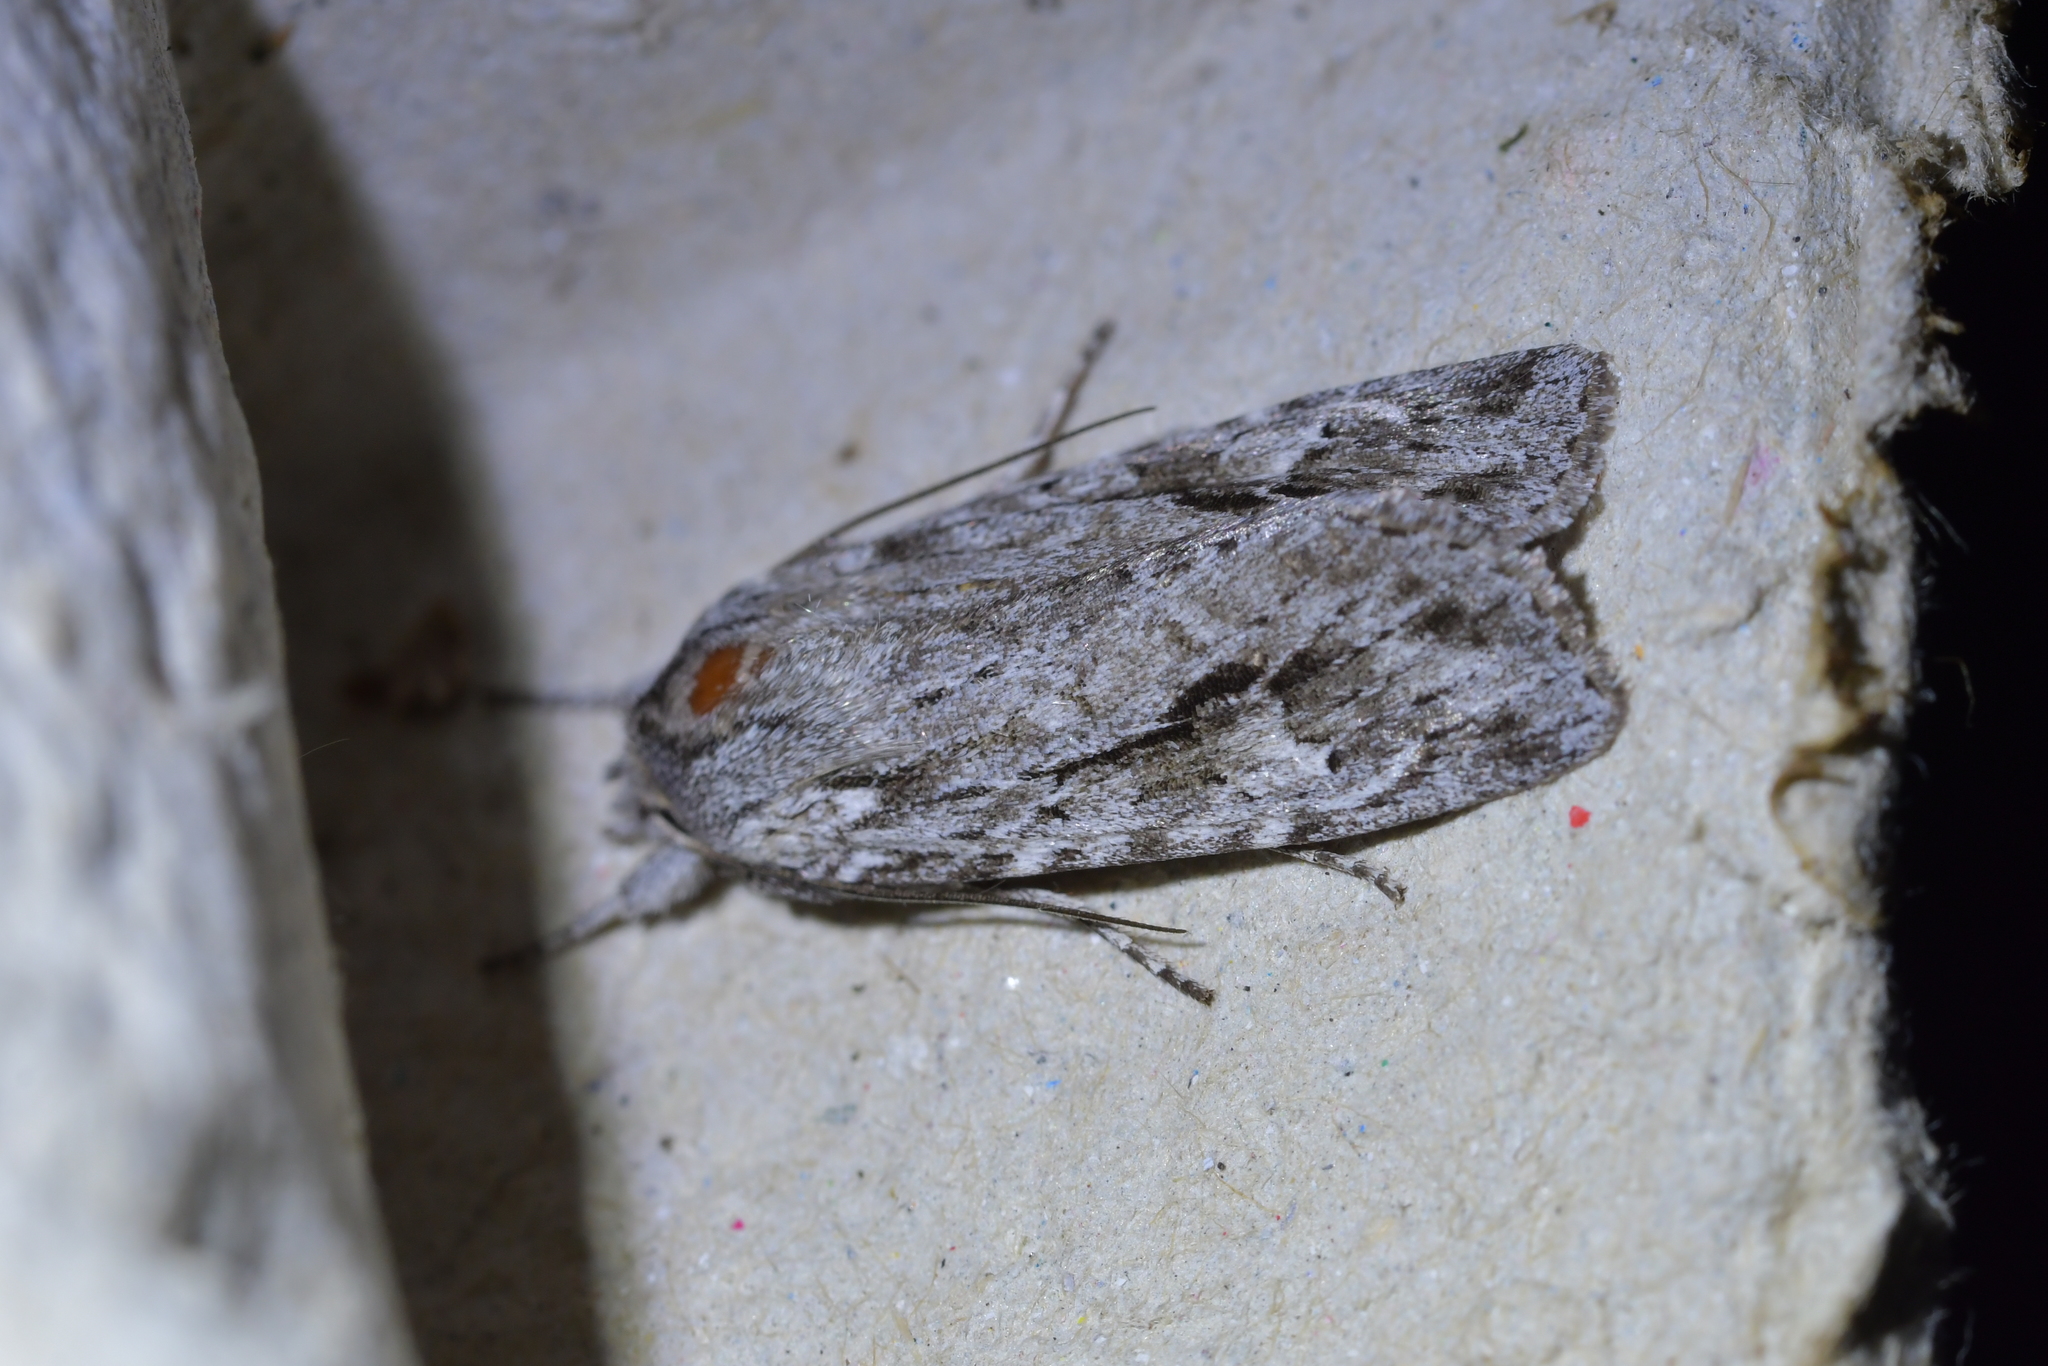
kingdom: Animalia
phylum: Arthropoda
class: Insecta
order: Lepidoptera
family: Noctuidae
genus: Physetica
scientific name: Physetica sequens
